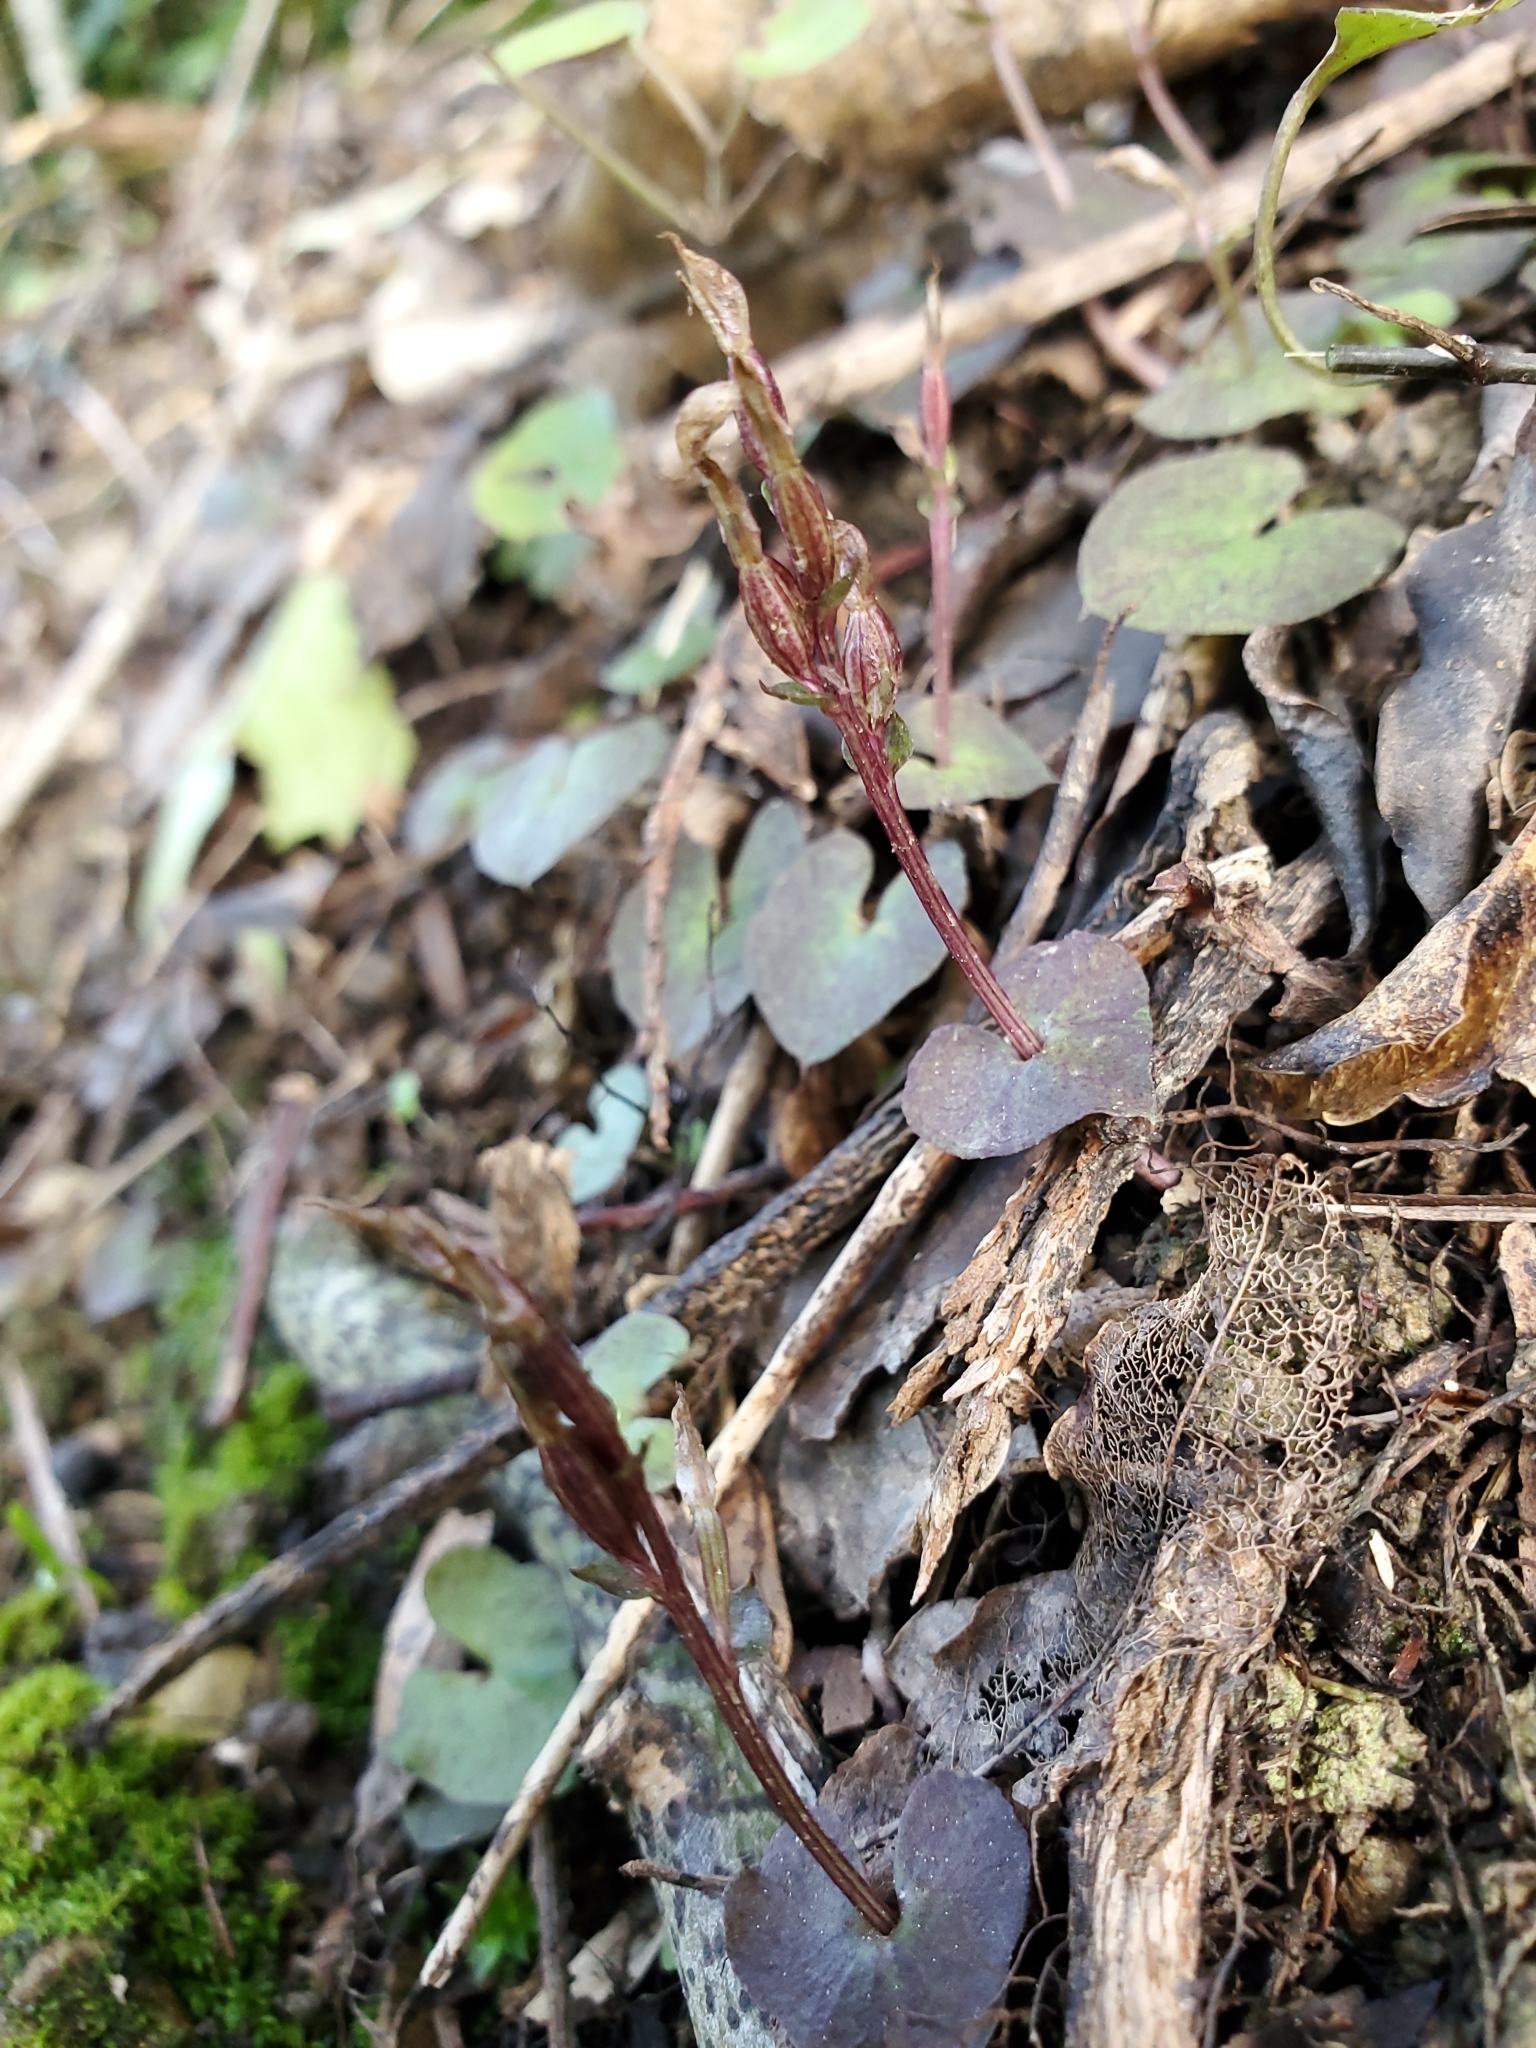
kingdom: Plantae
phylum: Tracheophyta
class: Liliopsida
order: Asparagales
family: Orchidaceae
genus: Acianthus
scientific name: Acianthus sinclairii
